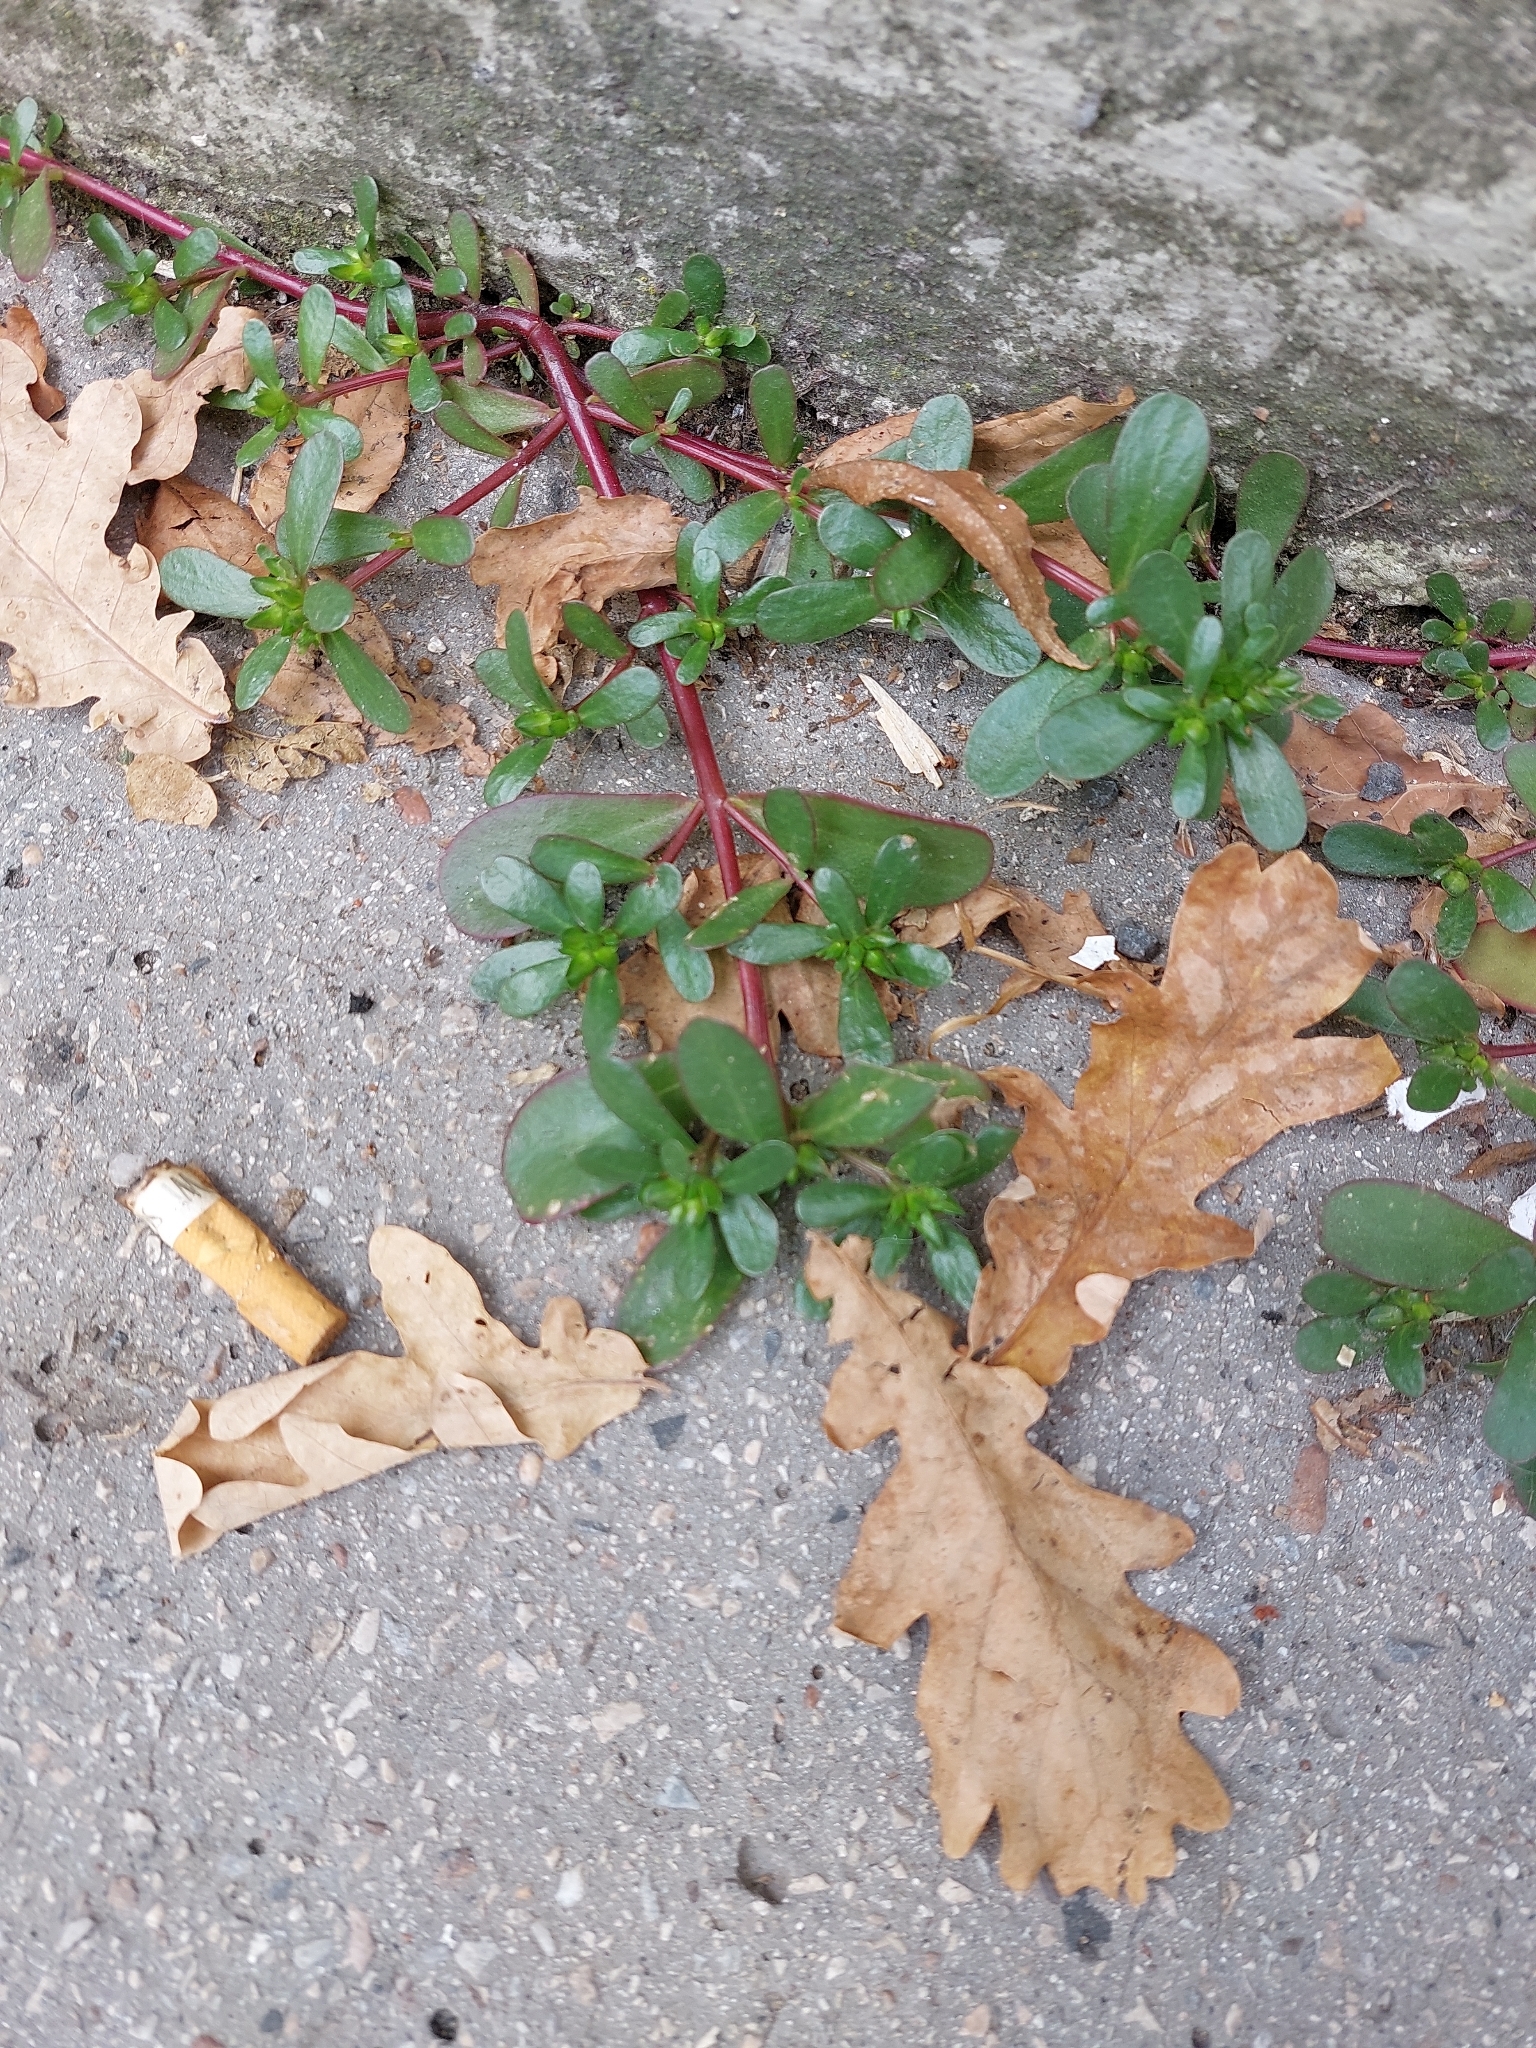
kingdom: Plantae
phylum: Tracheophyta
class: Magnoliopsida
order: Caryophyllales
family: Portulacaceae
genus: Portulaca
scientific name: Portulaca oleracea
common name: Common purslane
